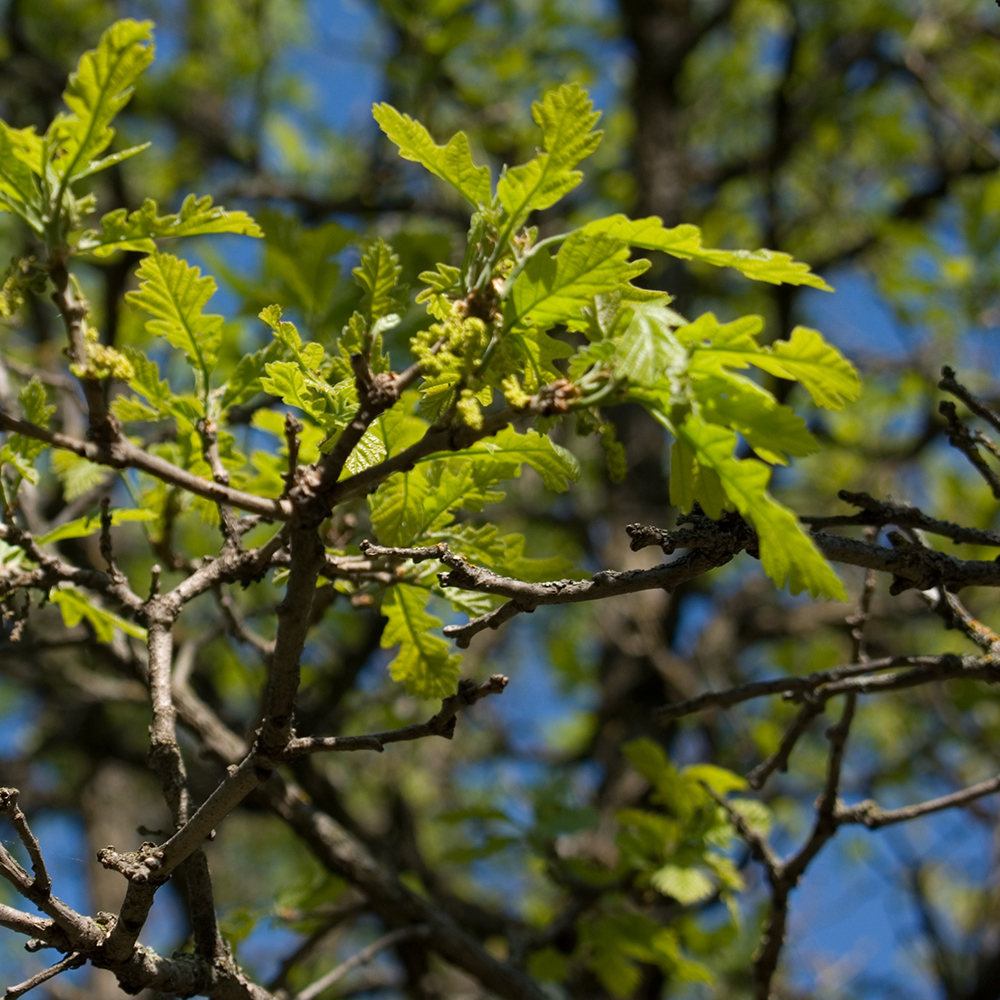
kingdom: Plantae
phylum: Tracheophyta
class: Magnoliopsida
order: Fagales
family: Fagaceae
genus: Quercus
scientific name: Quercus macrocarpa
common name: Bur oak
